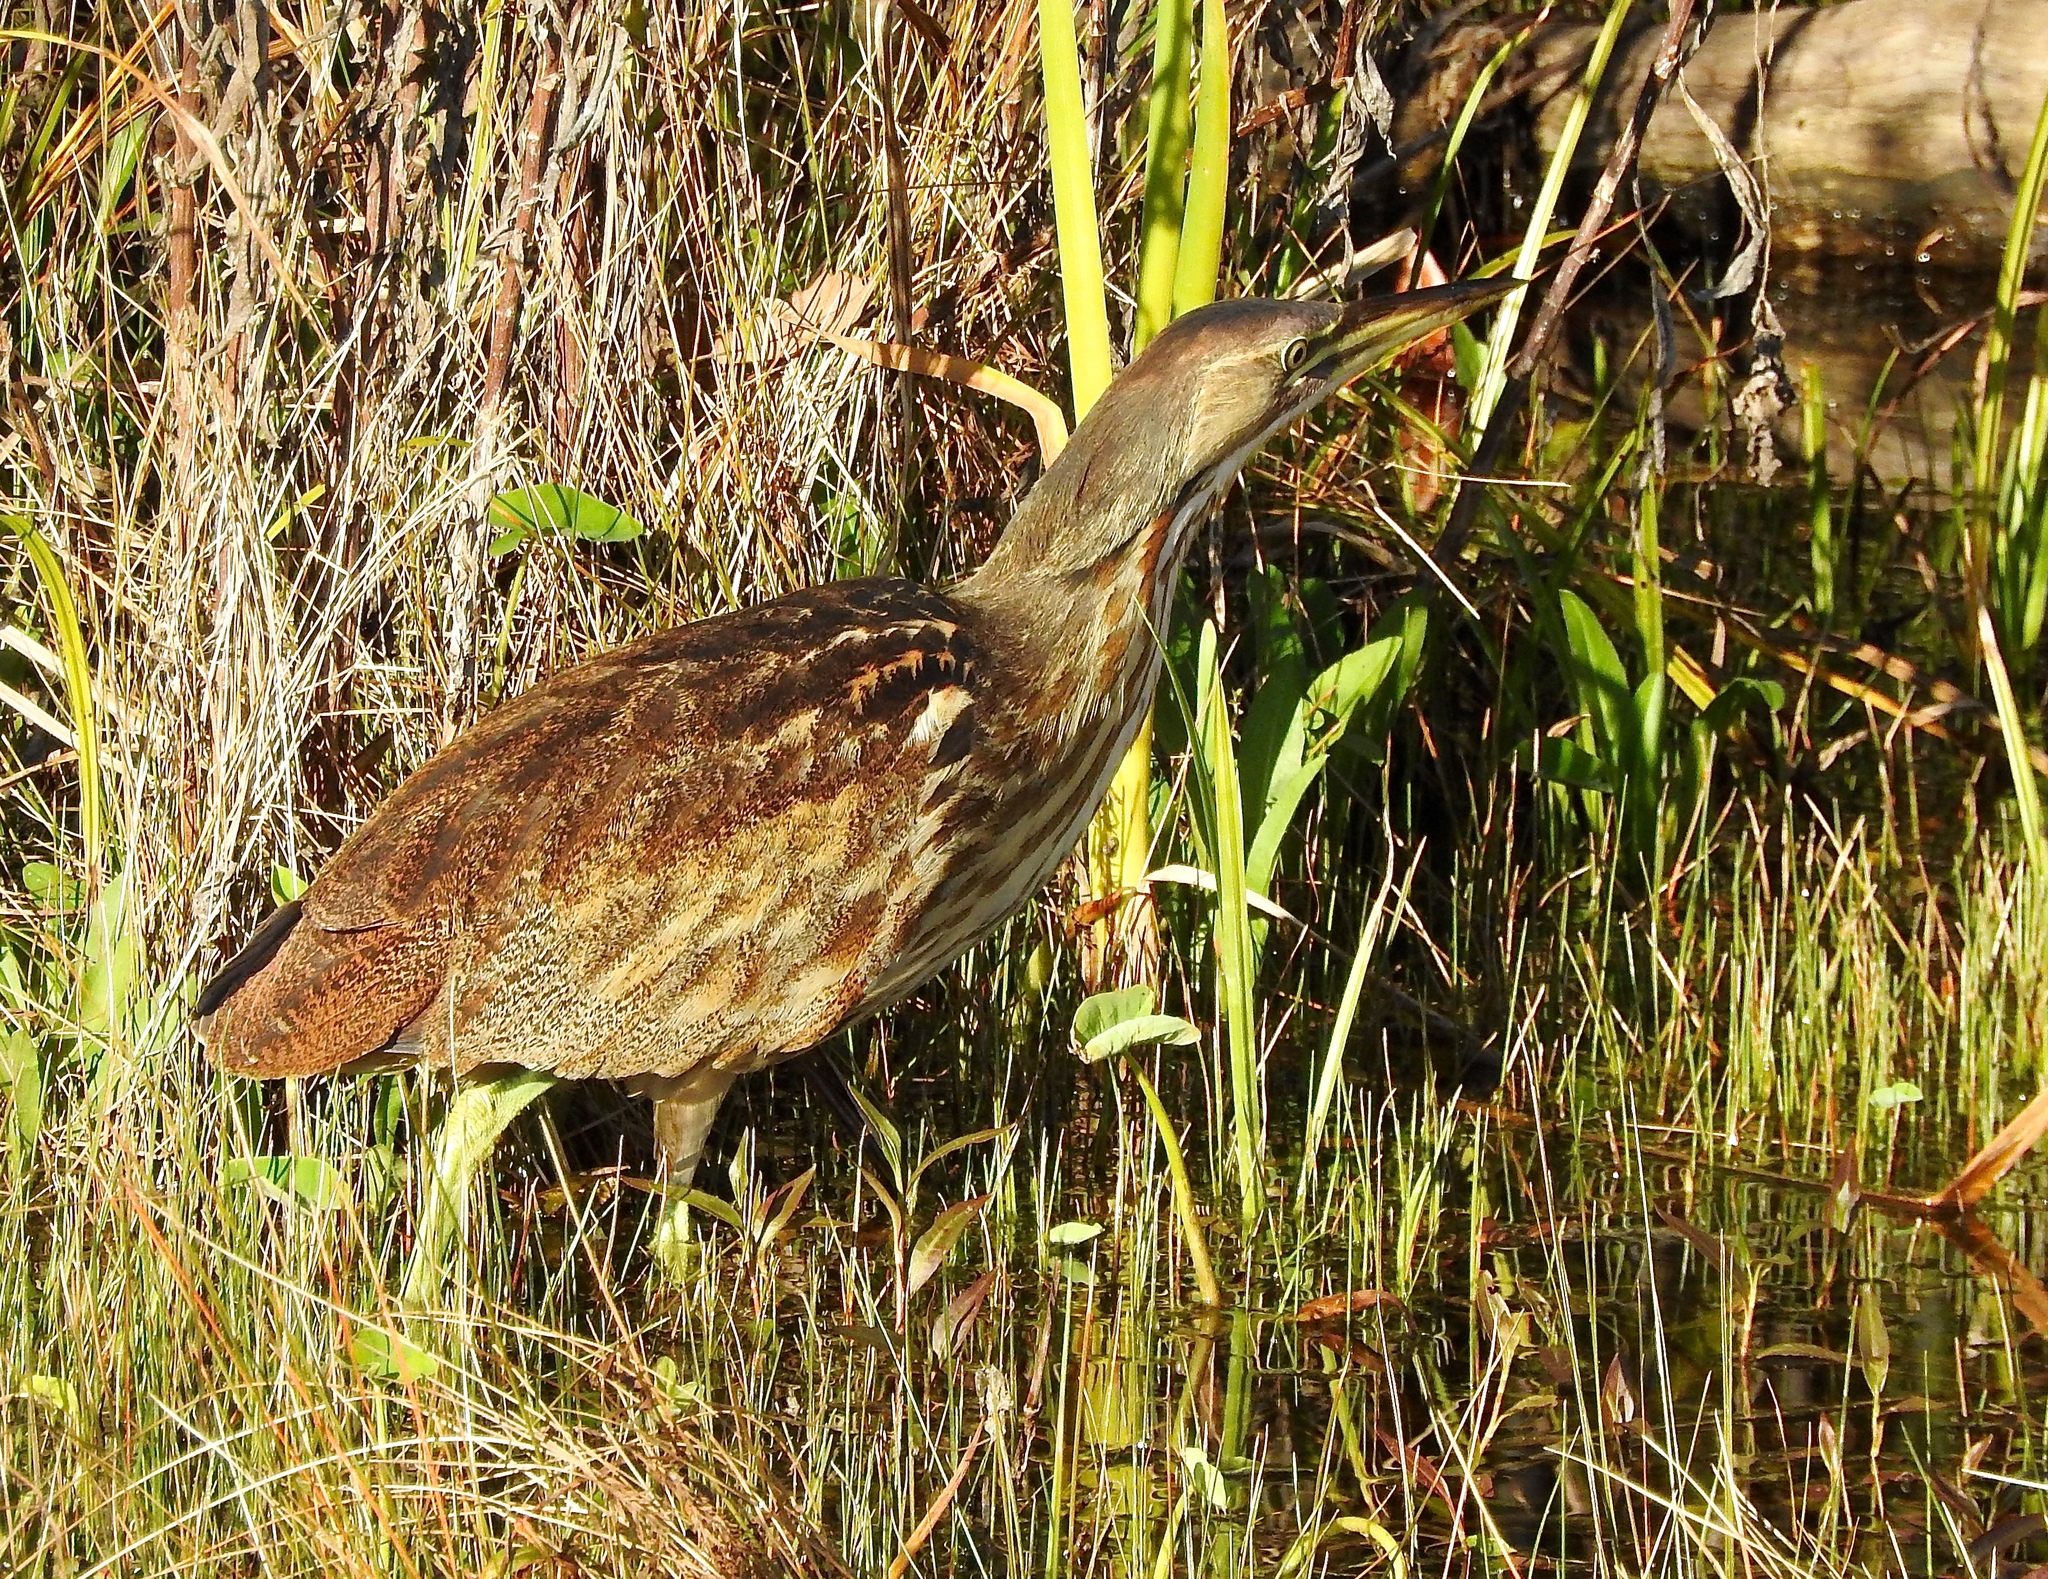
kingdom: Animalia
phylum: Chordata
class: Aves
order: Pelecaniformes
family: Ardeidae
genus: Botaurus
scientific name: Botaurus lentiginosus
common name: American bittern
